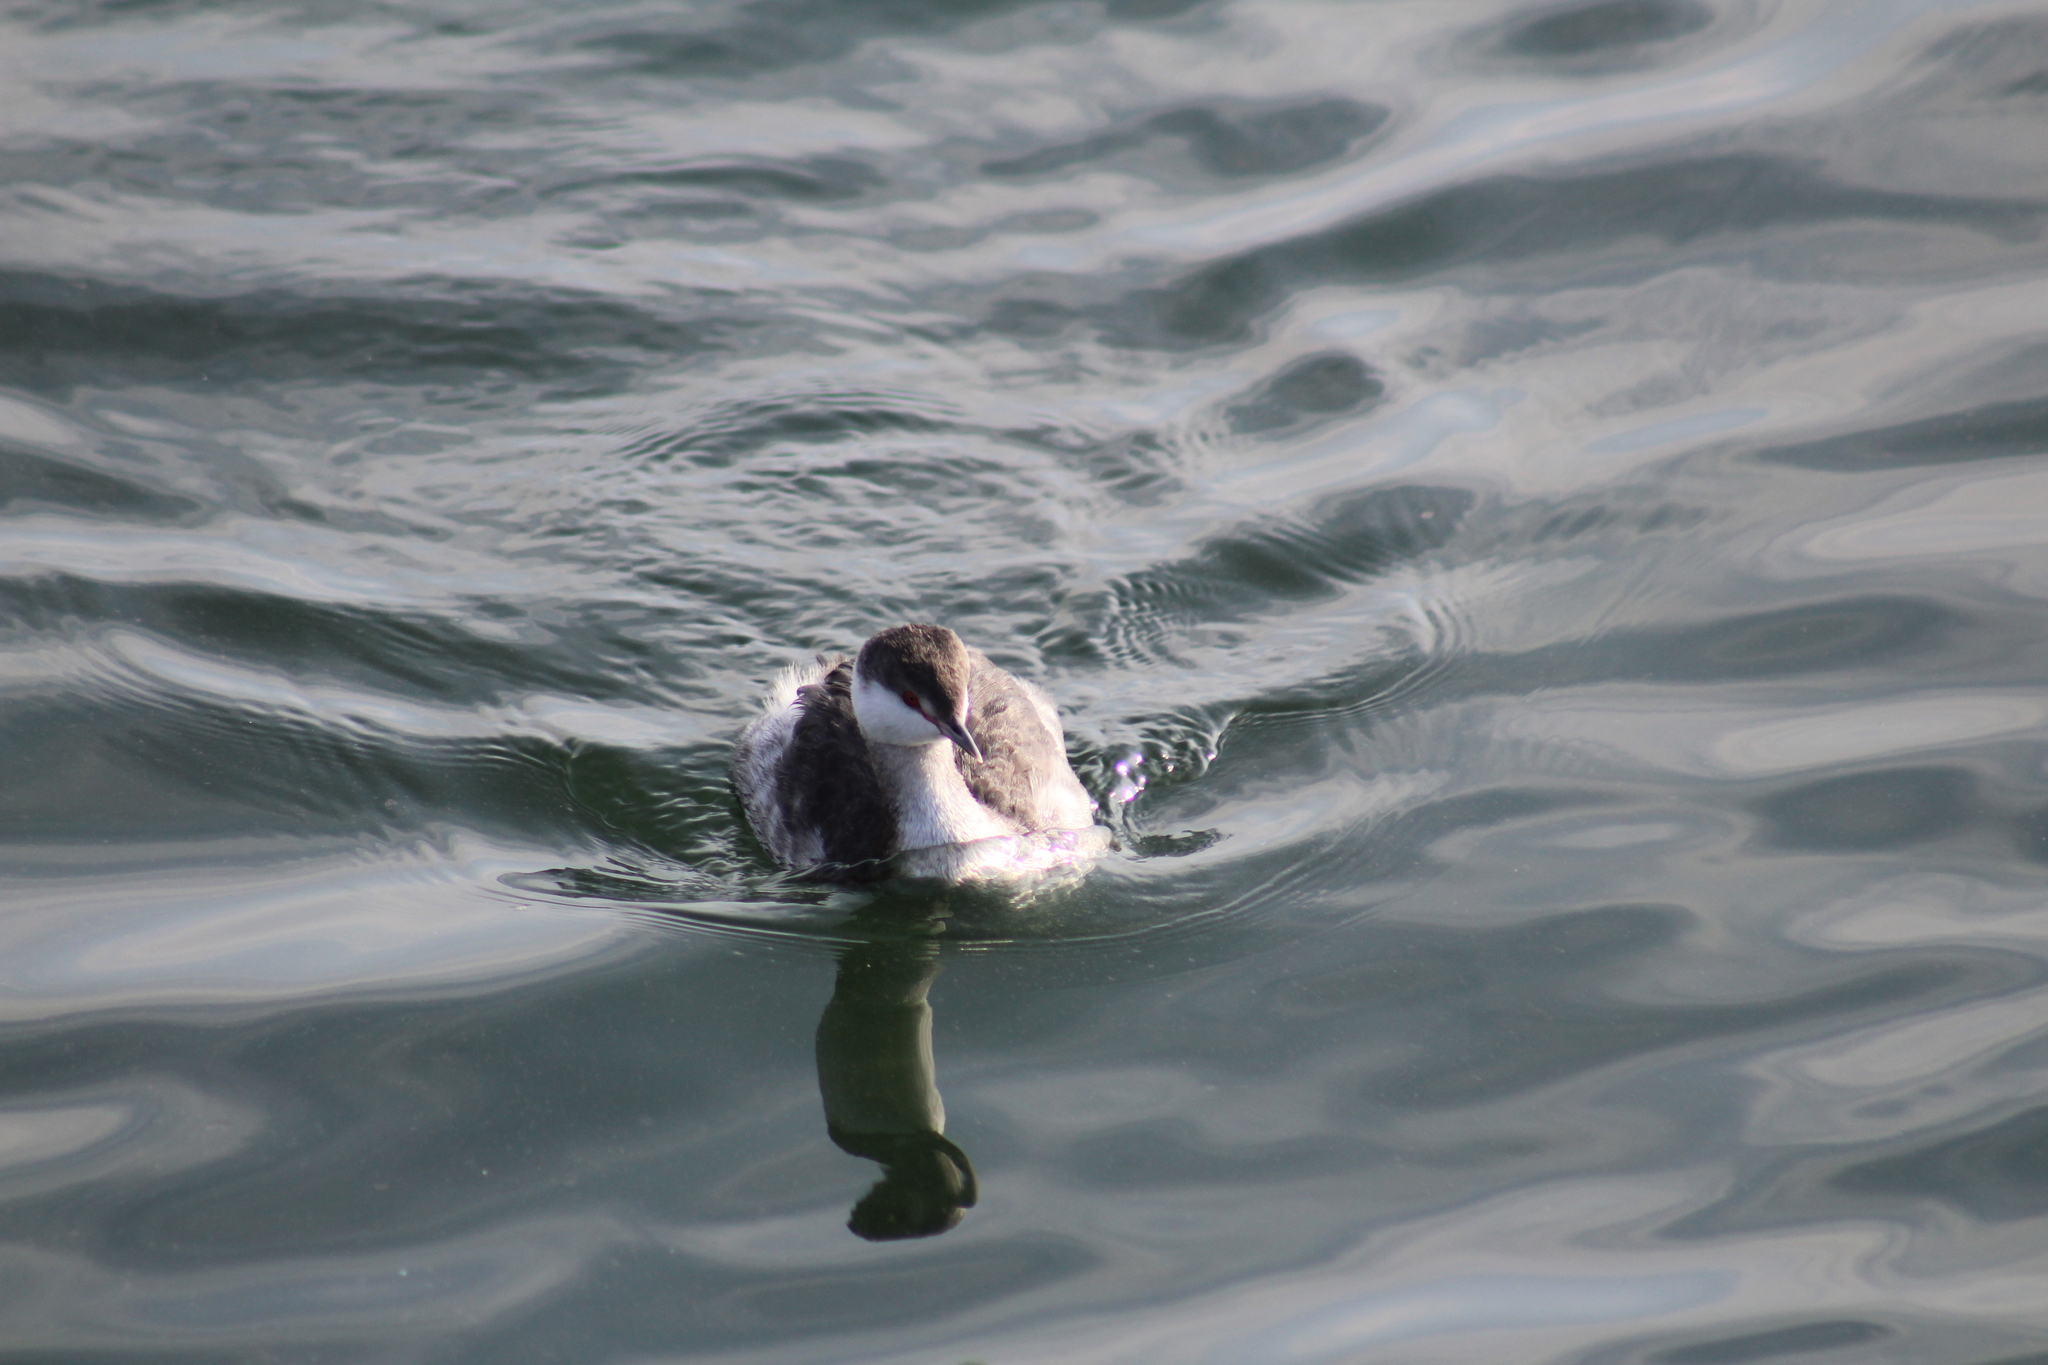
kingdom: Animalia
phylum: Chordata
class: Aves
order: Podicipediformes
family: Podicipedidae
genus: Podiceps
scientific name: Podiceps auritus
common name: Horned grebe
